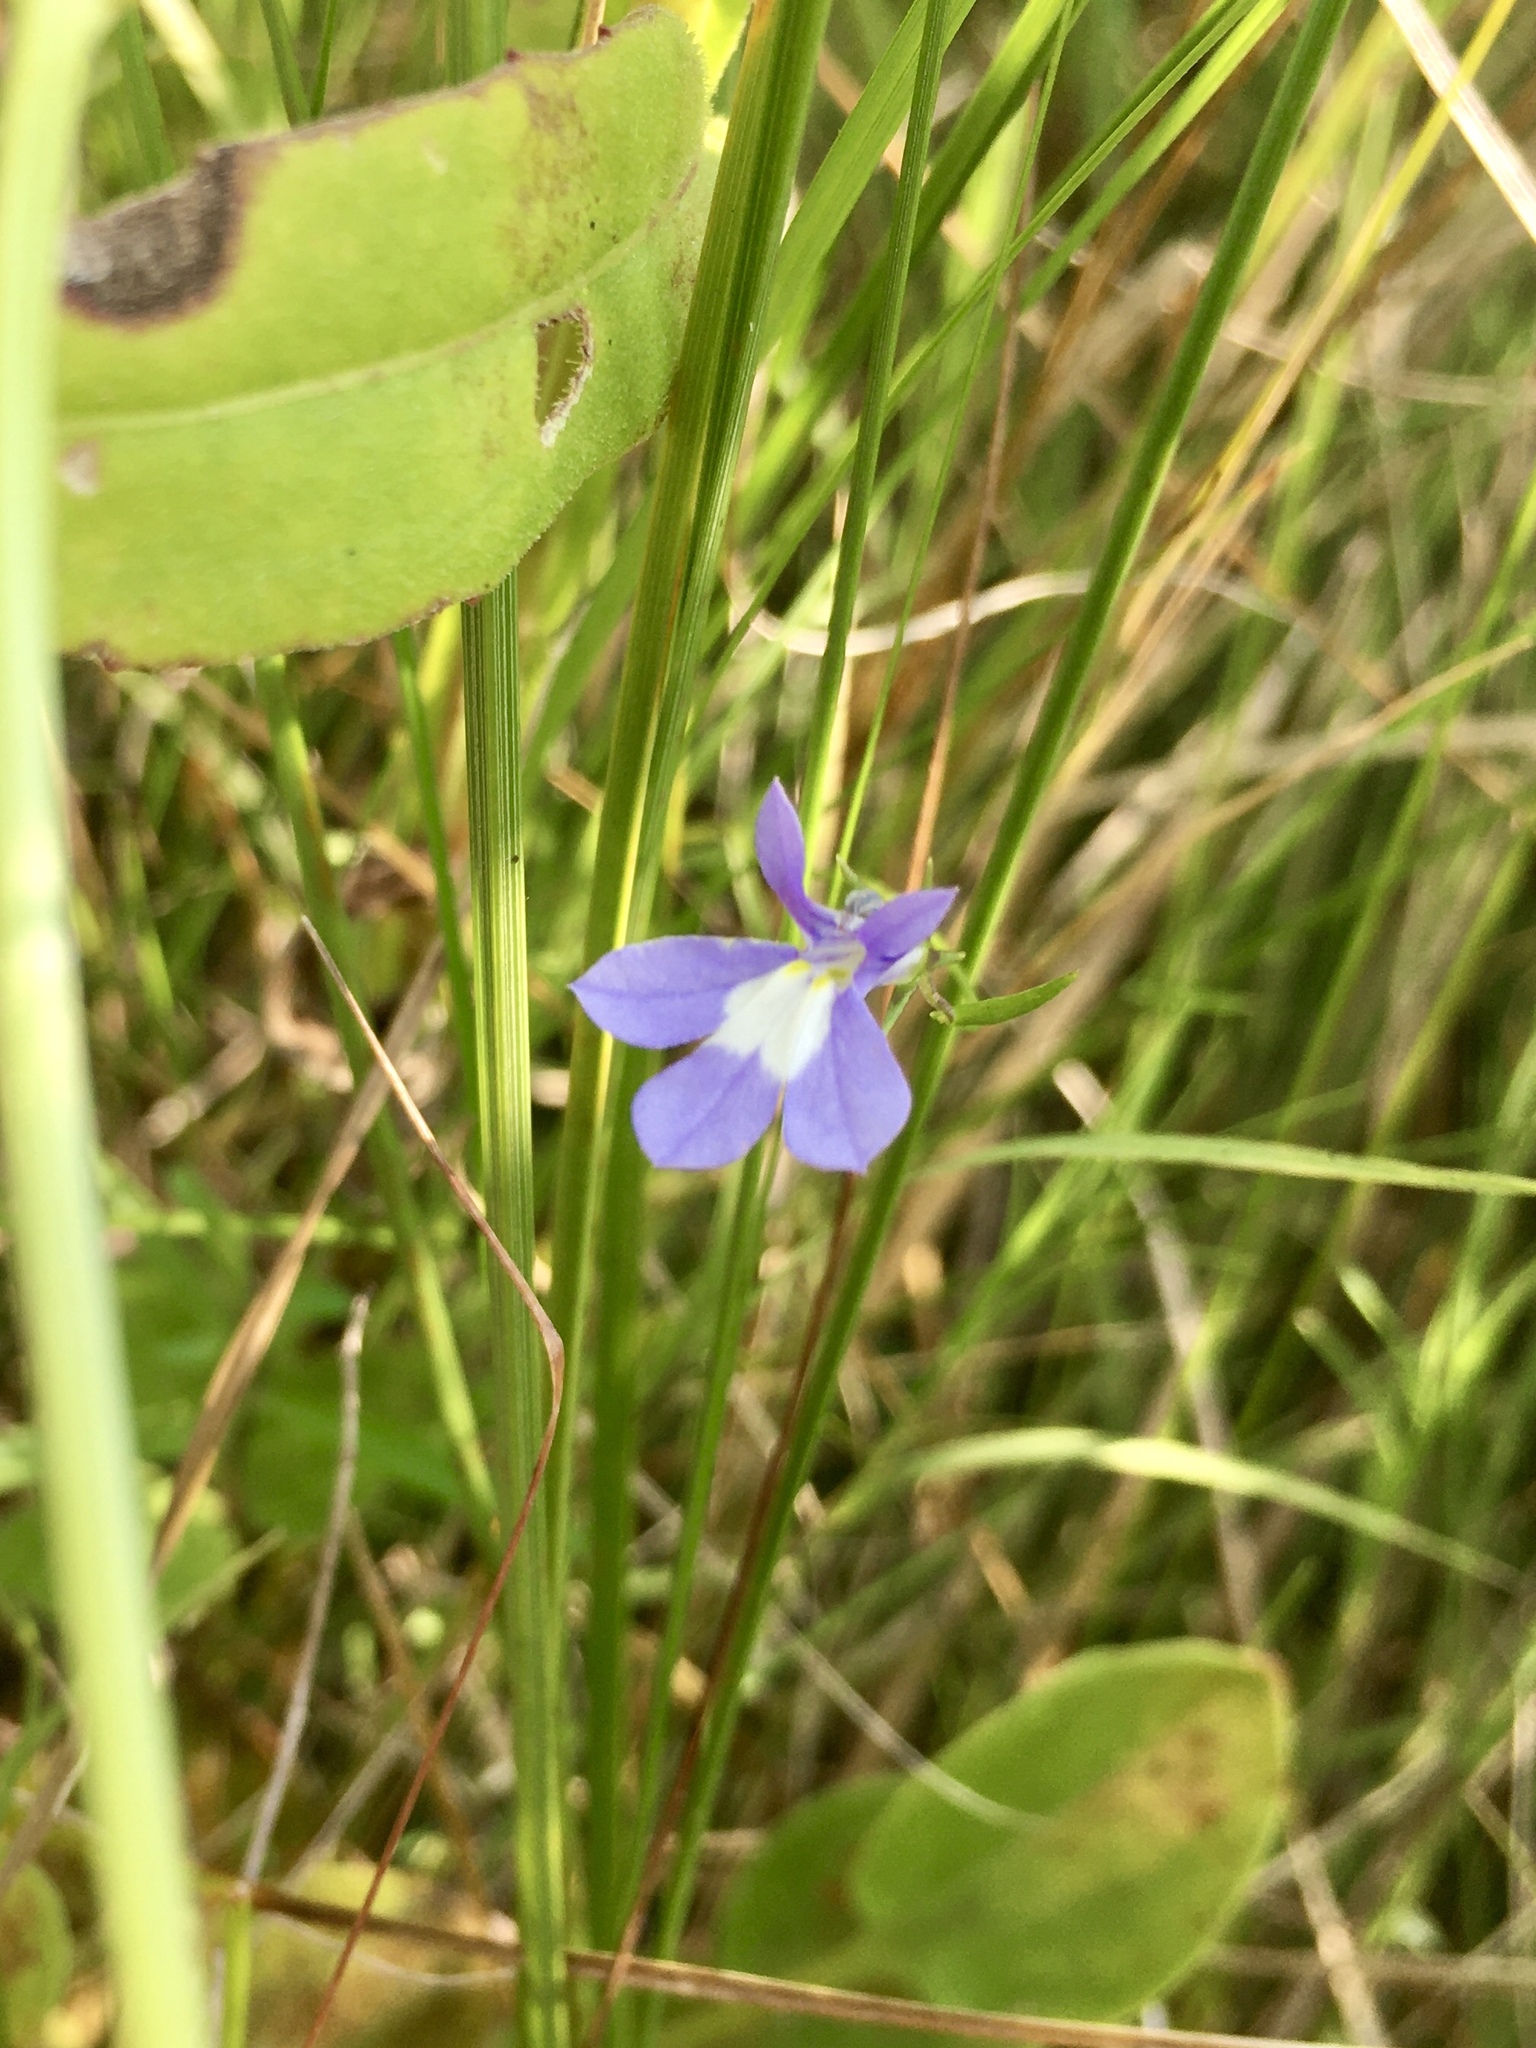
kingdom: Plantae
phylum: Tracheophyta
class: Magnoliopsida
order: Asterales
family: Campanulaceae
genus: Lobelia
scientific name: Lobelia kalmii
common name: Kalm's lobelia
